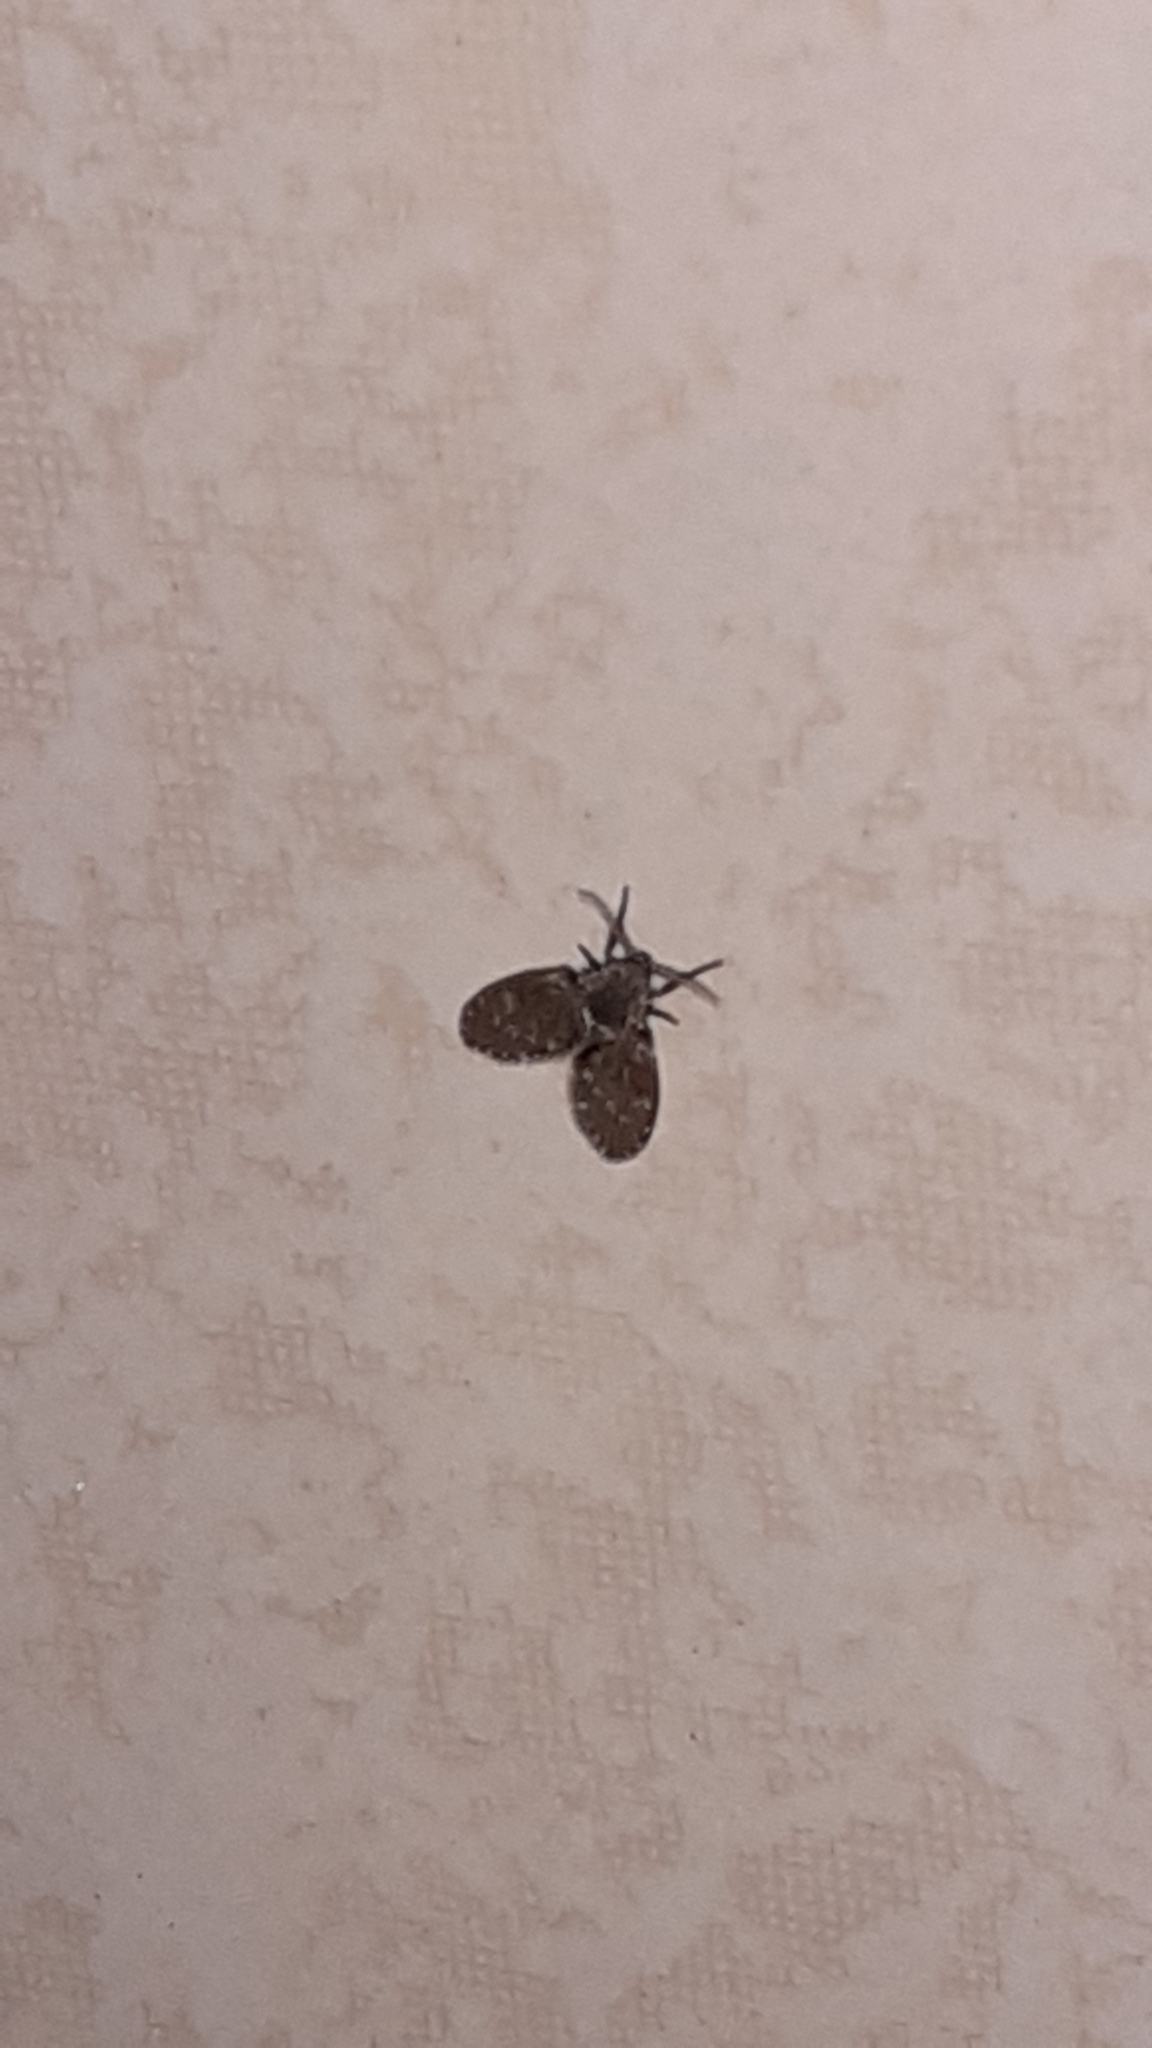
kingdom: Animalia
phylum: Arthropoda
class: Insecta
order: Diptera
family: Psychodidae
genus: Clogmia
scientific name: Clogmia albipunctatus
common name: White-spotted moth fly
